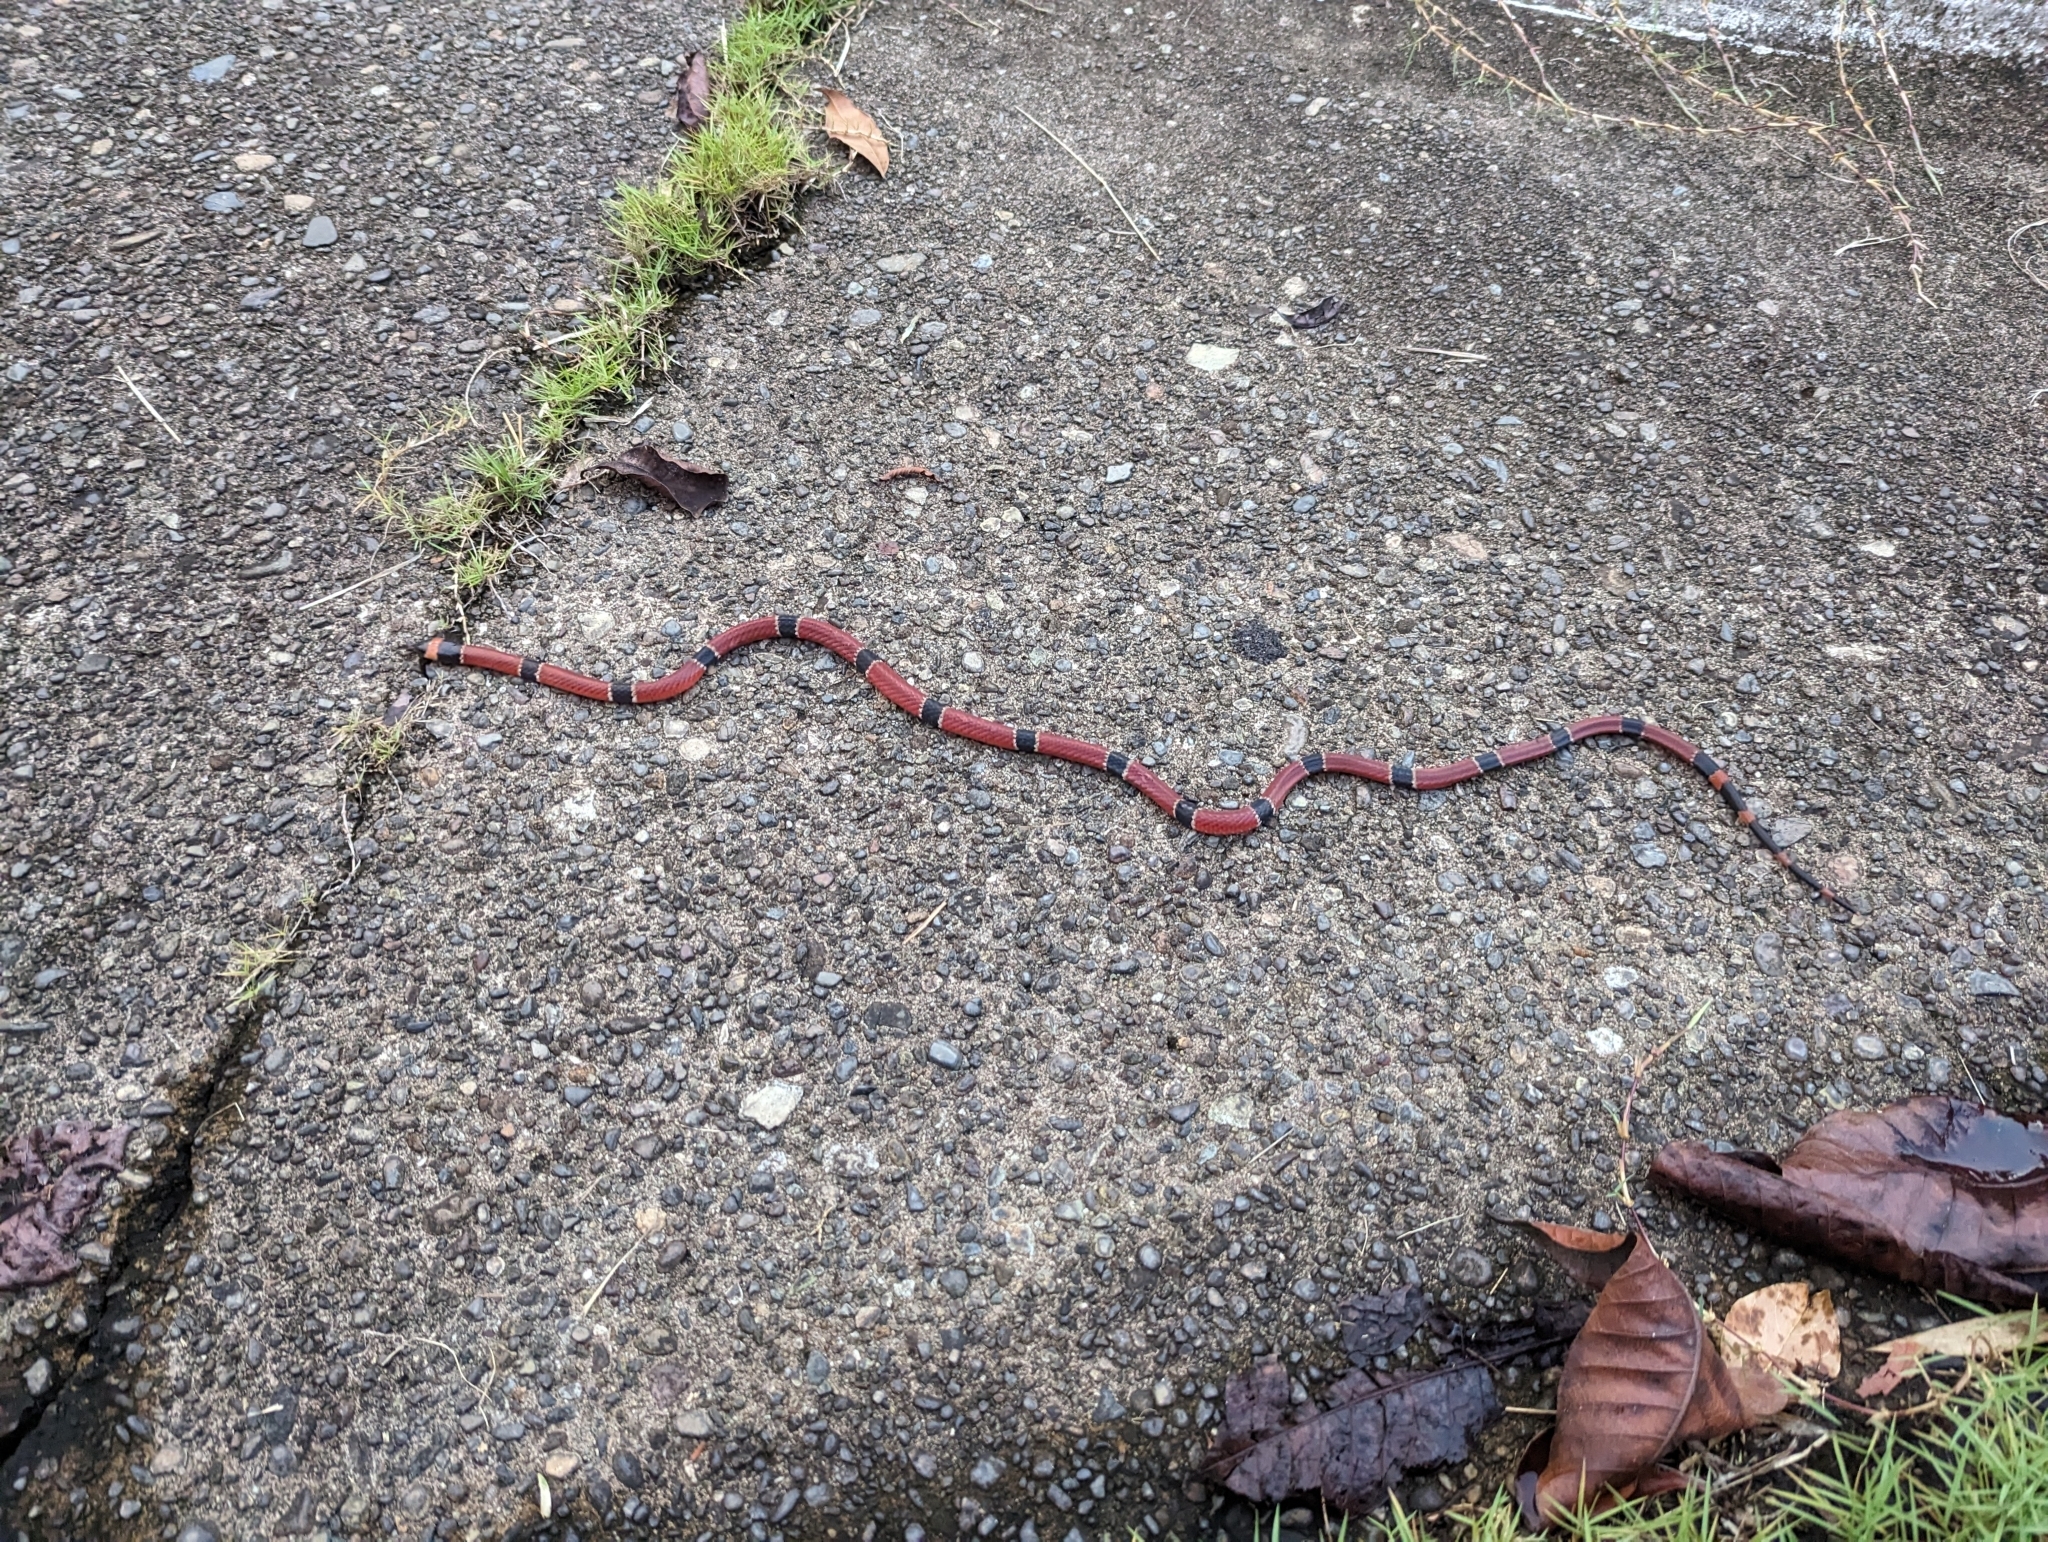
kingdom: Animalia
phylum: Chordata
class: Squamata
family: Elapidae
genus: Micrurus
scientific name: Micrurus nigrocinctus
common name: Babaspul [babaspul]
